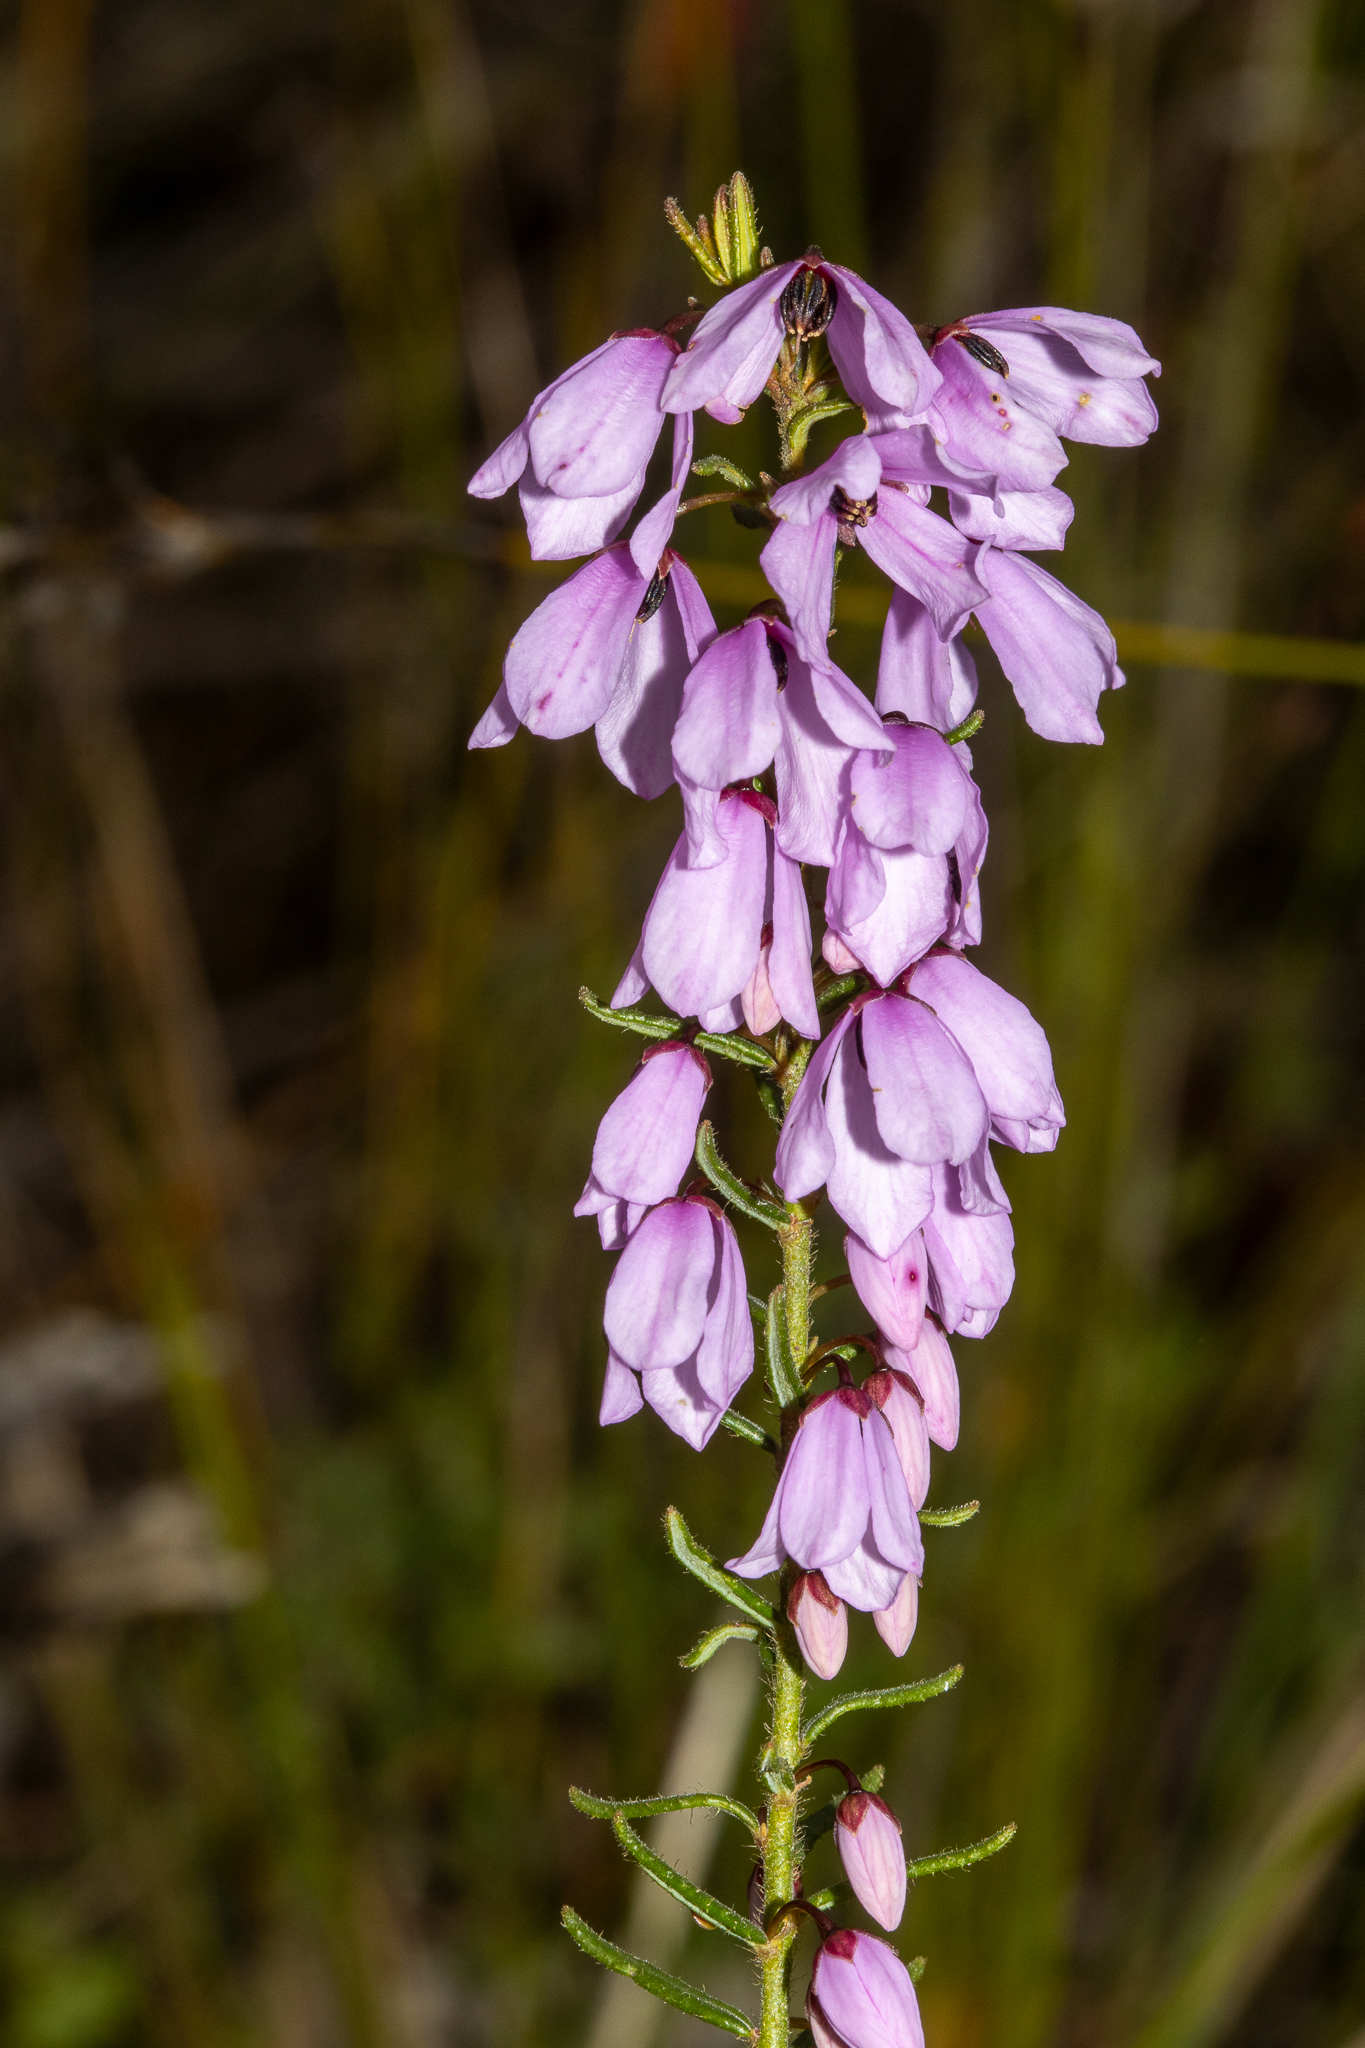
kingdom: Plantae
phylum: Tracheophyta
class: Magnoliopsida
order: Oxalidales
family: Elaeocarpaceae
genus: Tetratheca
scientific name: Tetratheca pilosa
